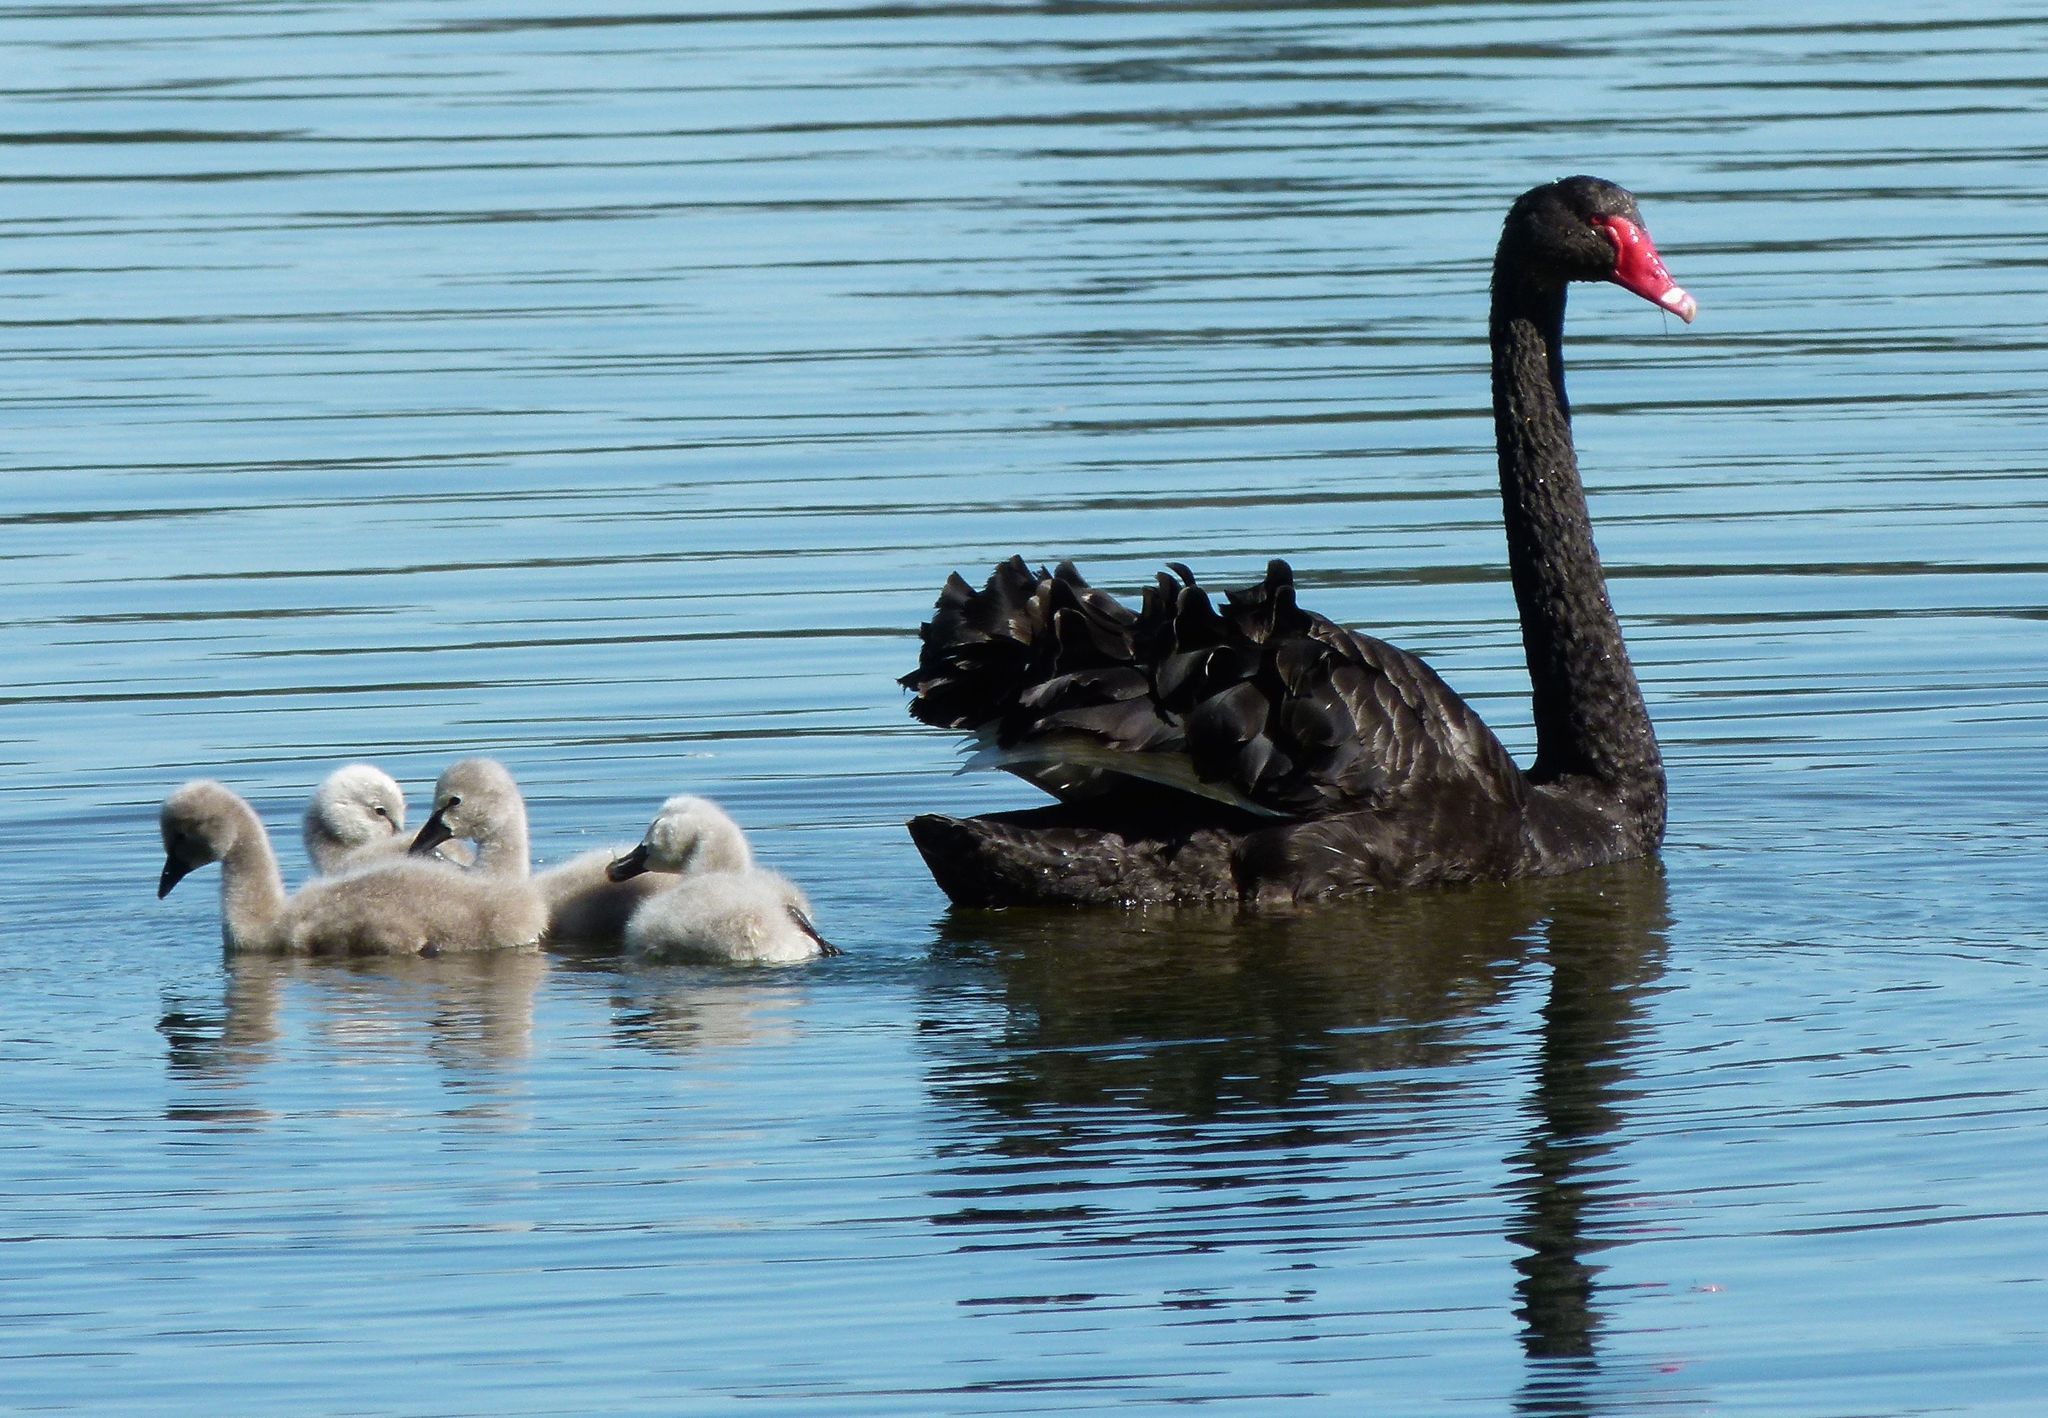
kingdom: Animalia
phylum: Chordata
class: Aves
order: Anseriformes
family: Anatidae
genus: Cygnus
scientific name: Cygnus atratus
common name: Black swan
